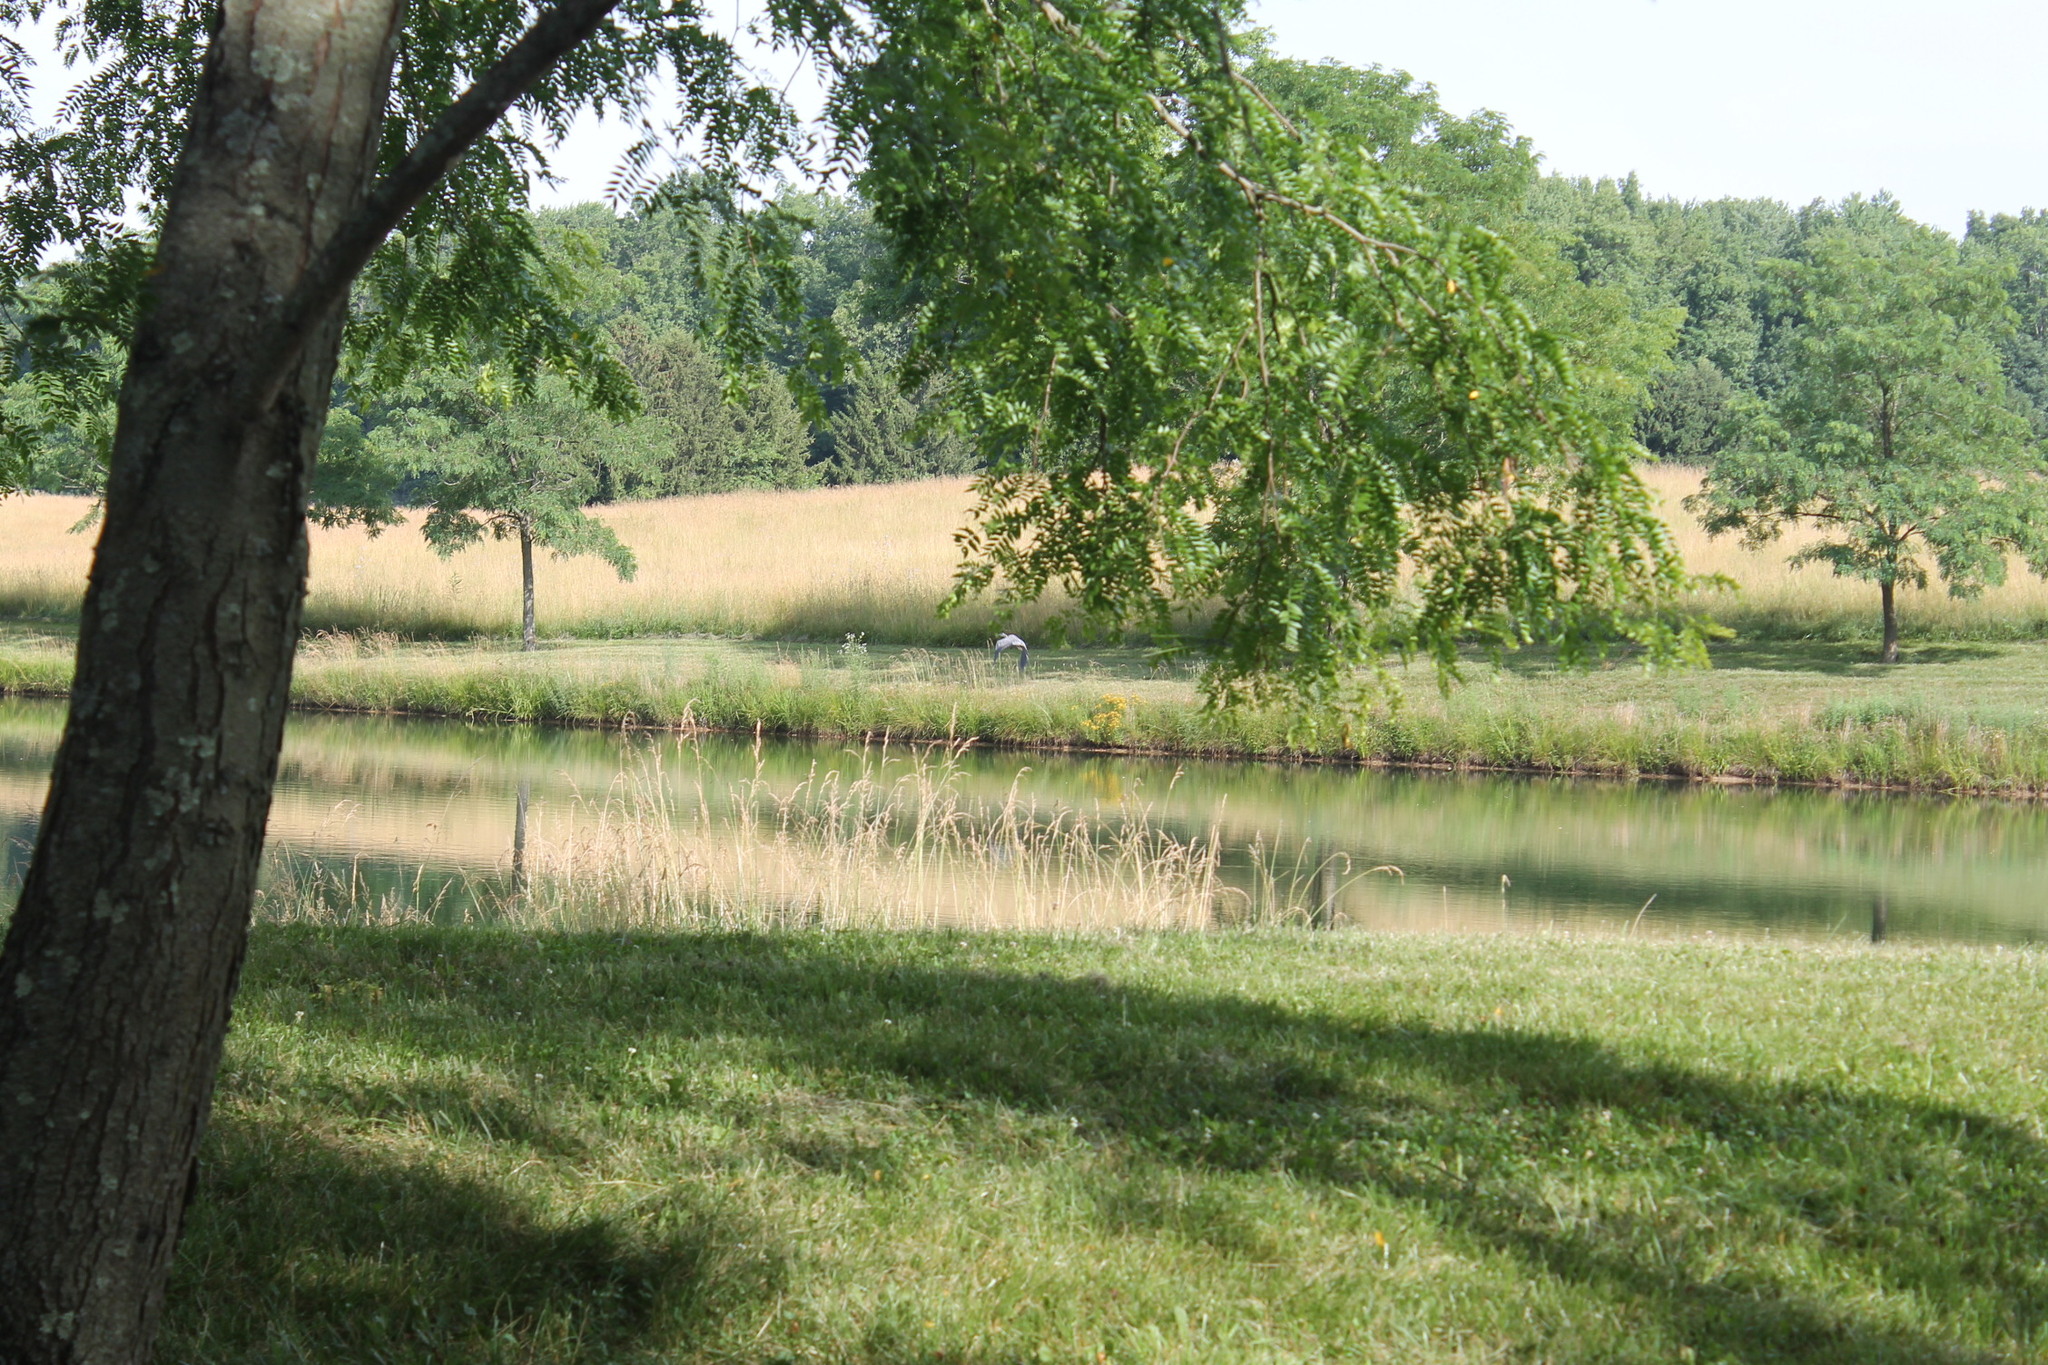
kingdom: Animalia
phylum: Chordata
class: Aves
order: Pelecaniformes
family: Ardeidae
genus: Ardea
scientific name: Ardea herodias
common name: Great blue heron
